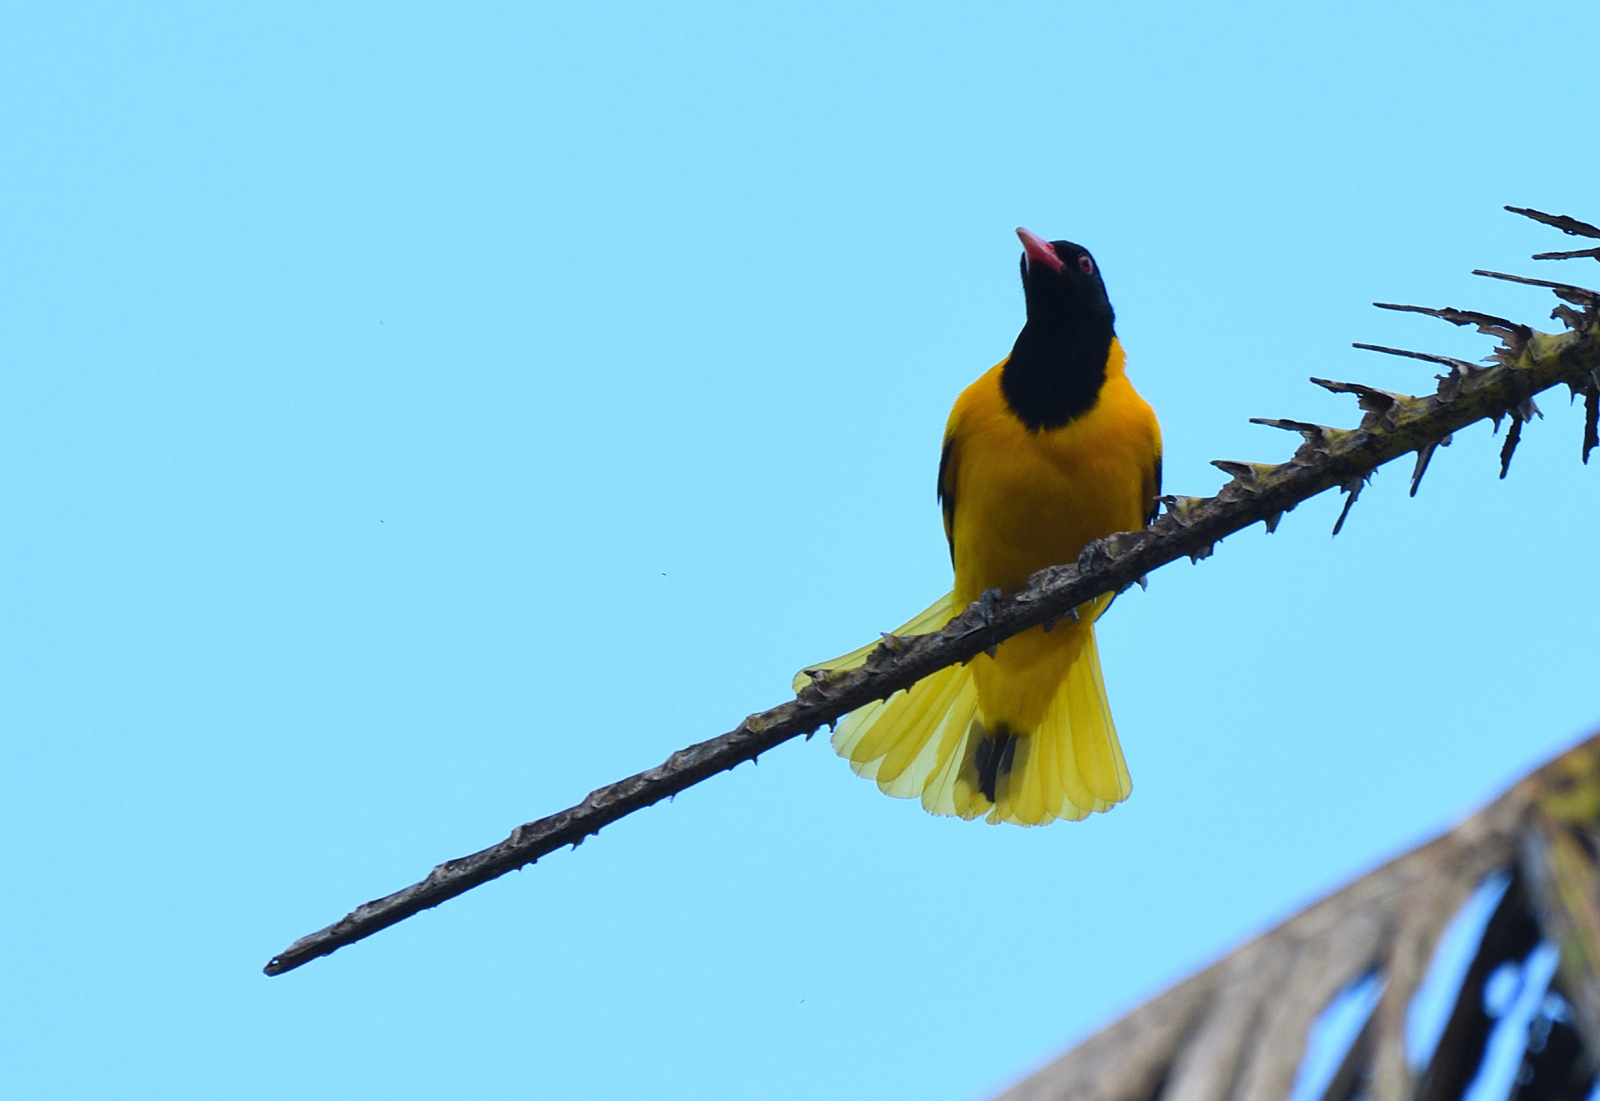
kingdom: Animalia
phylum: Chordata
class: Aves
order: Passeriformes
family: Oriolidae
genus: Oriolus
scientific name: Oriolus xanthornus
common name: Black-hooded oriole
